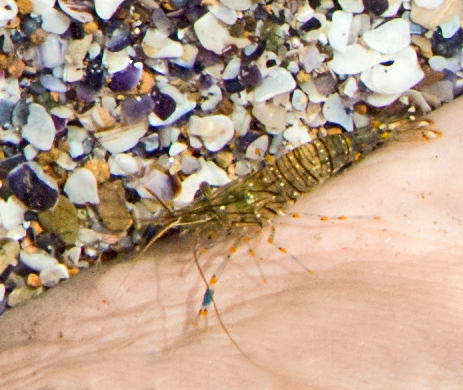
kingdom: Animalia
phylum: Arthropoda
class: Malacostraca
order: Decapoda
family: Palaemonidae
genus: Palaemon
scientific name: Palaemon elegans
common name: Grass prawm
